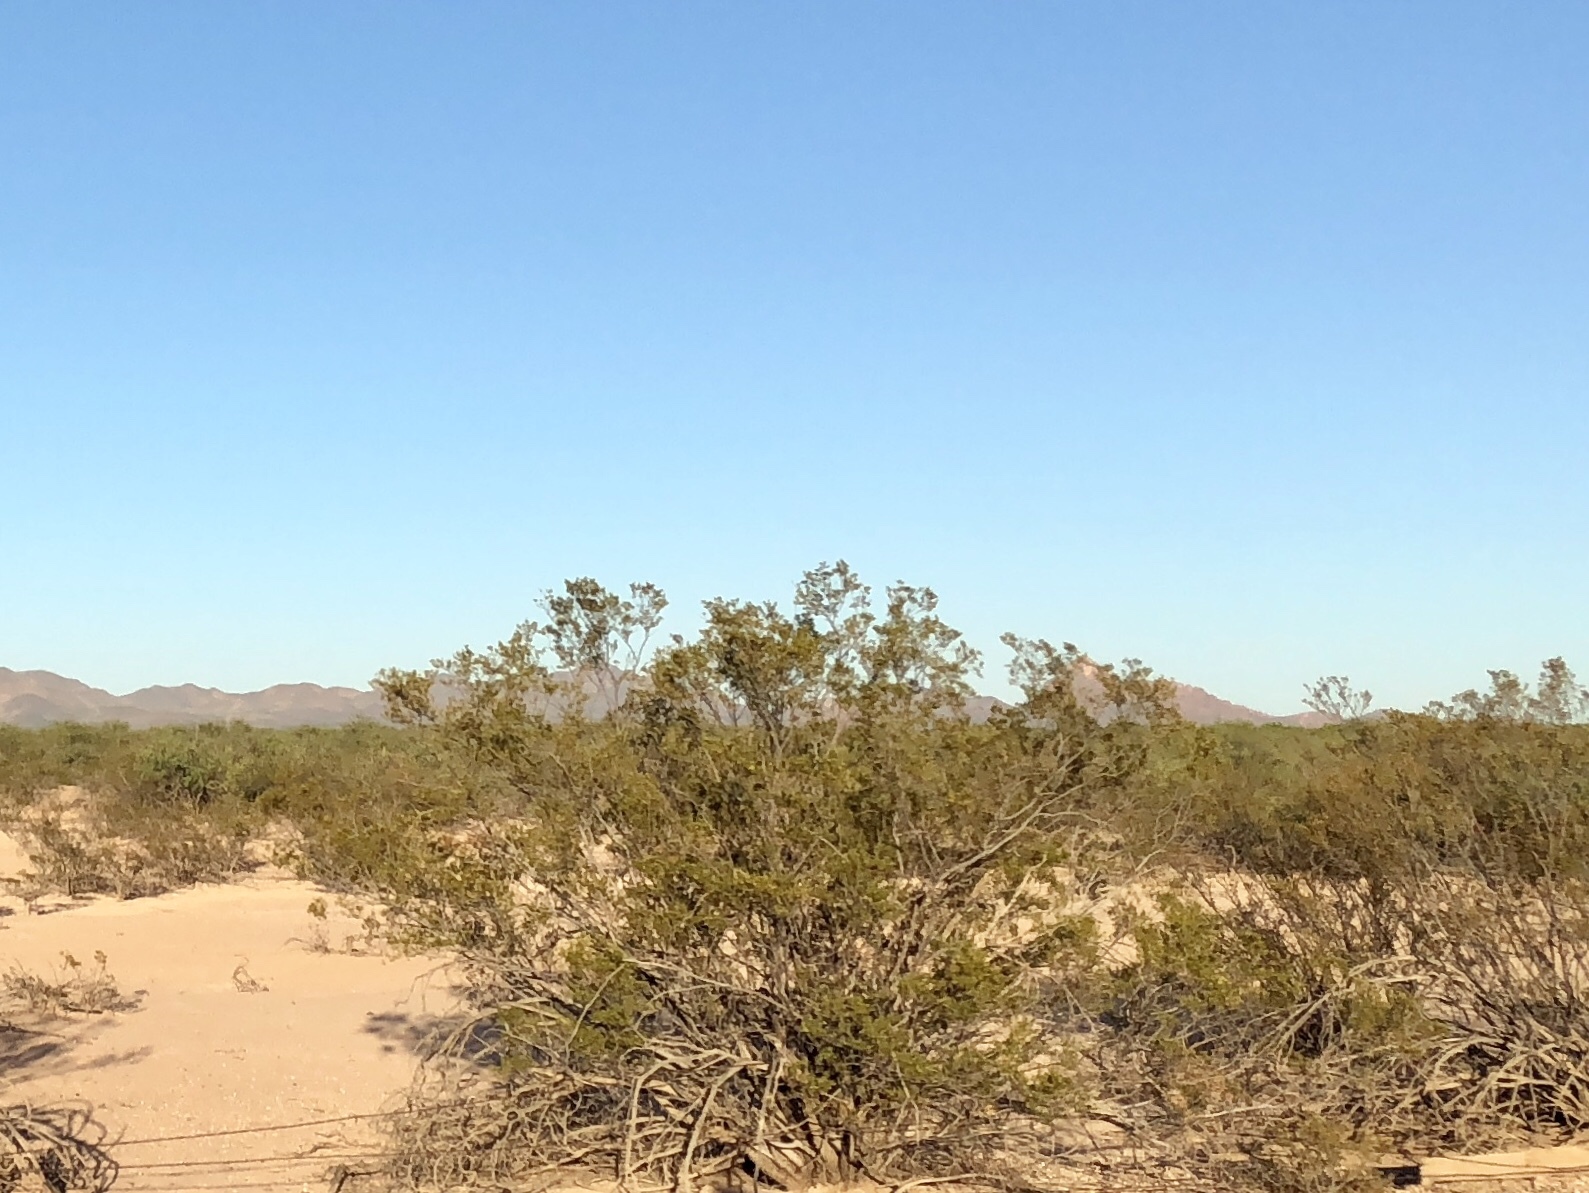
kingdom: Plantae
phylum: Tracheophyta
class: Magnoliopsida
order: Zygophyllales
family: Zygophyllaceae
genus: Larrea
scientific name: Larrea tridentata
